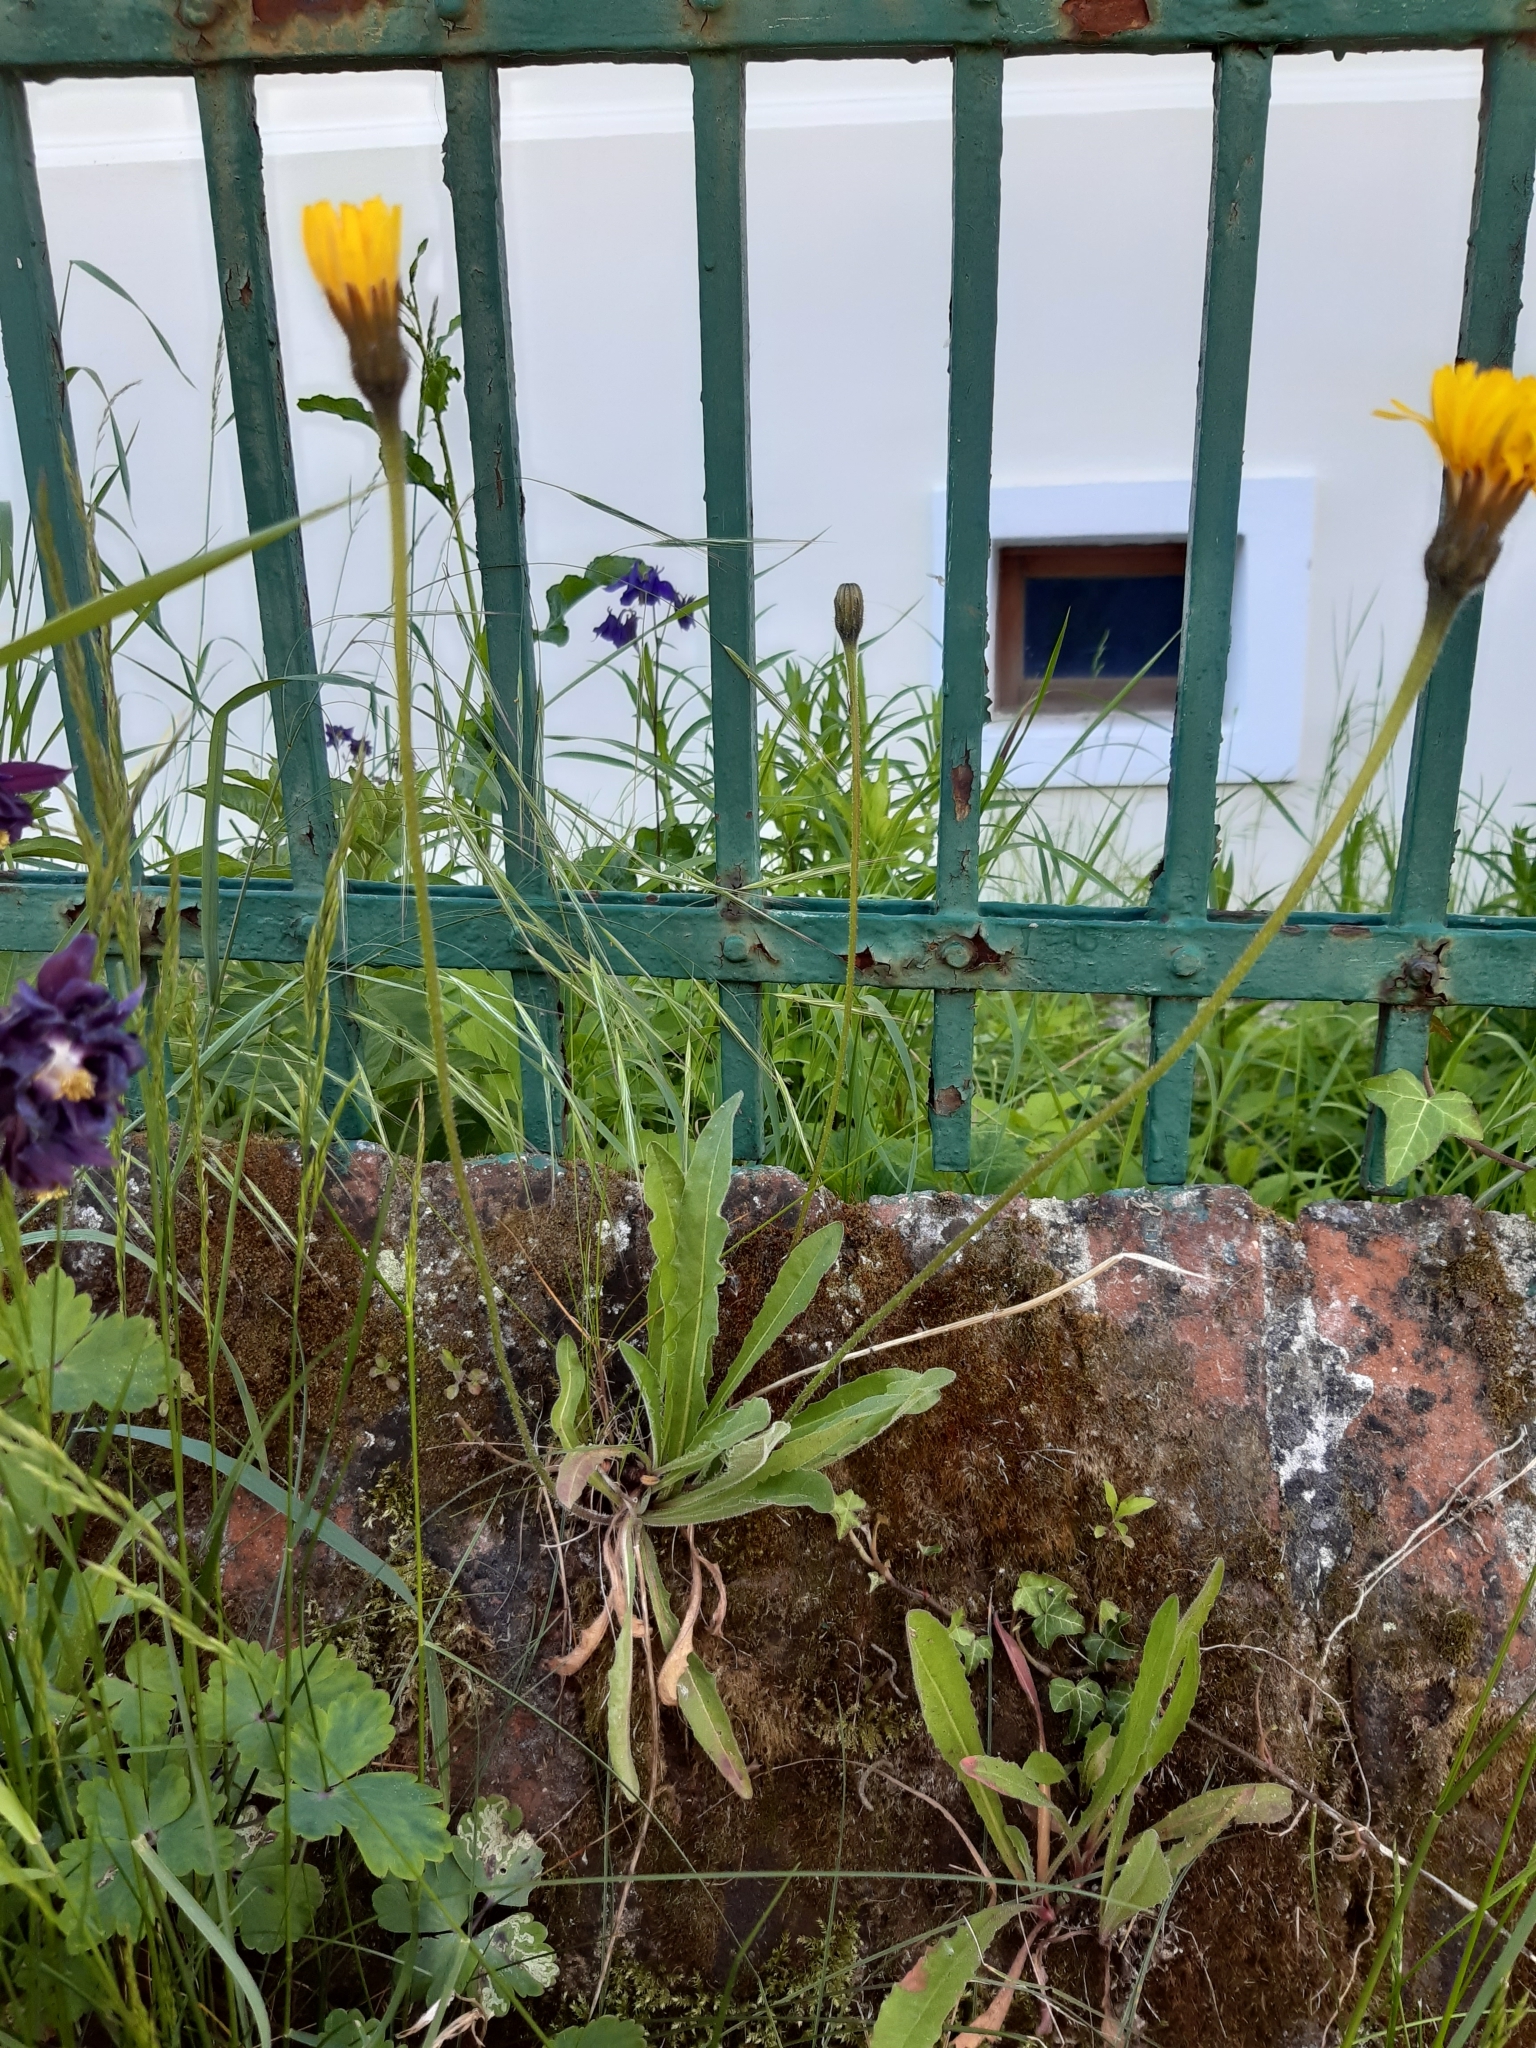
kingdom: Plantae
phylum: Tracheophyta
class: Magnoliopsida
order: Asterales
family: Asteraceae
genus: Leontodon
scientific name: Leontodon hispidus
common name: Rough hawkbit
